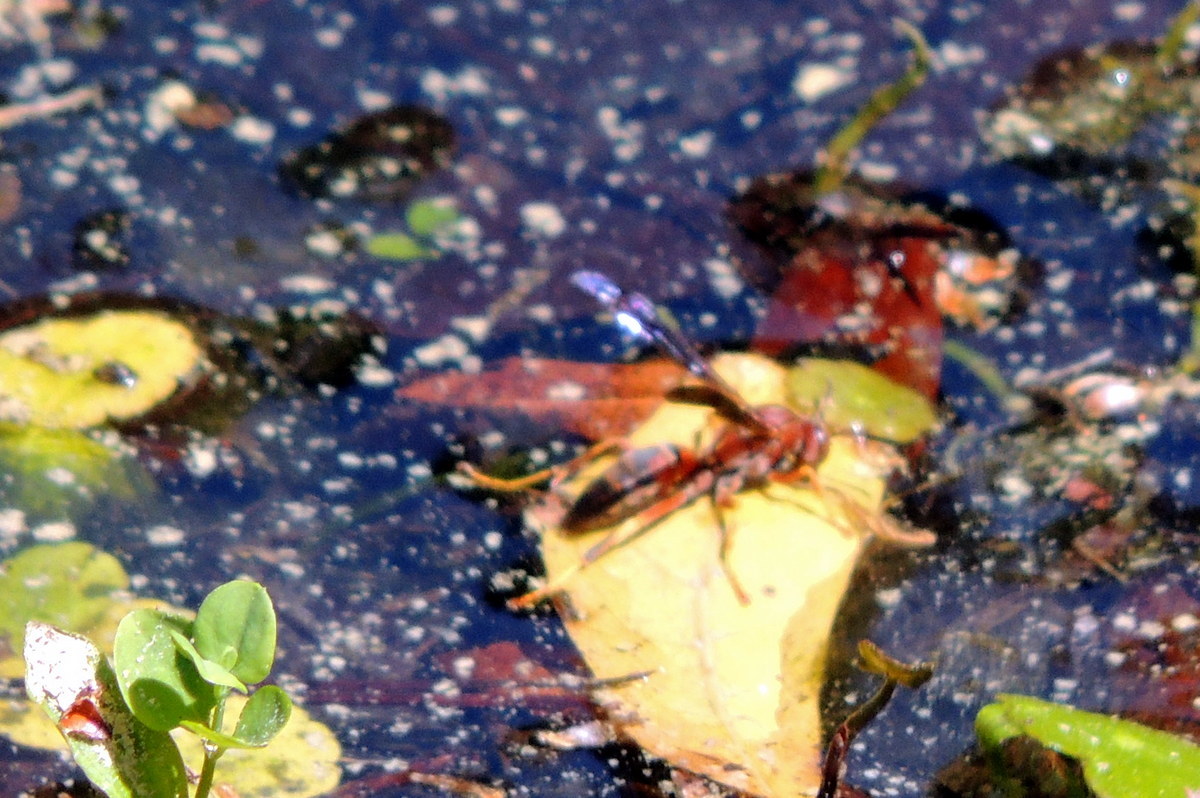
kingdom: Animalia
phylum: Arthropoda
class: Insecta
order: Hymenoptera
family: Vespidae
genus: Fuscopolistes
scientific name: Fuscopolistes
